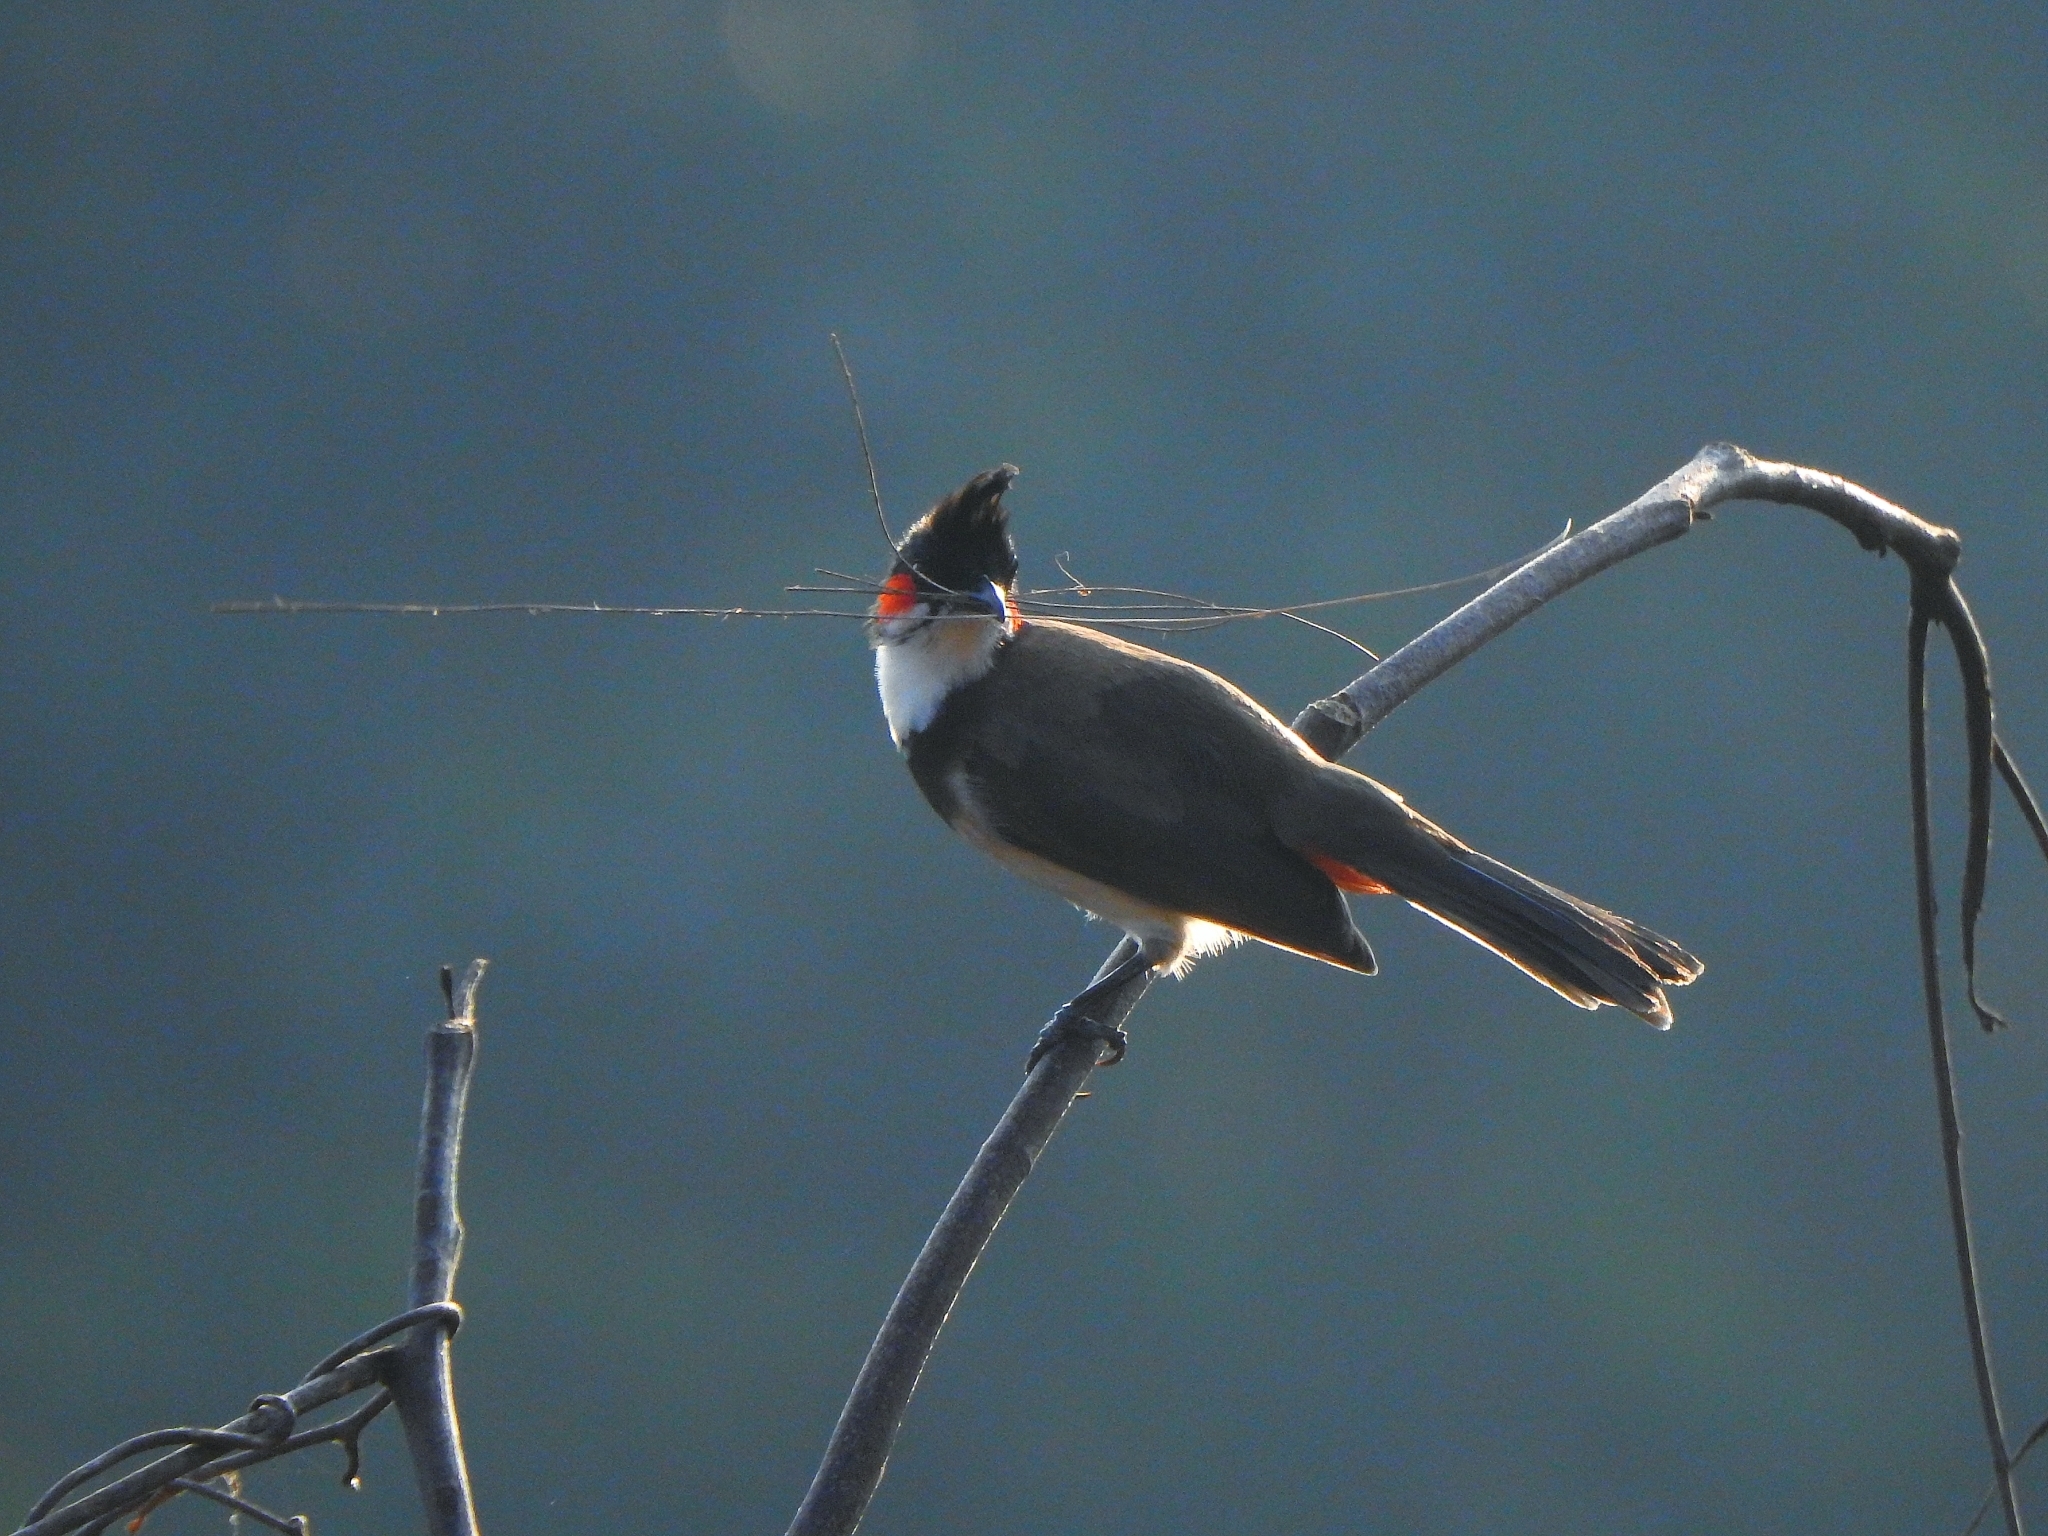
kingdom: Animalia
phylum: Chordata
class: Aves
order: Passeriformes
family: Pycnonotidae
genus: Pycnonotus
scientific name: Pycnonotus jocosus
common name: Red-whiskered bulbul
